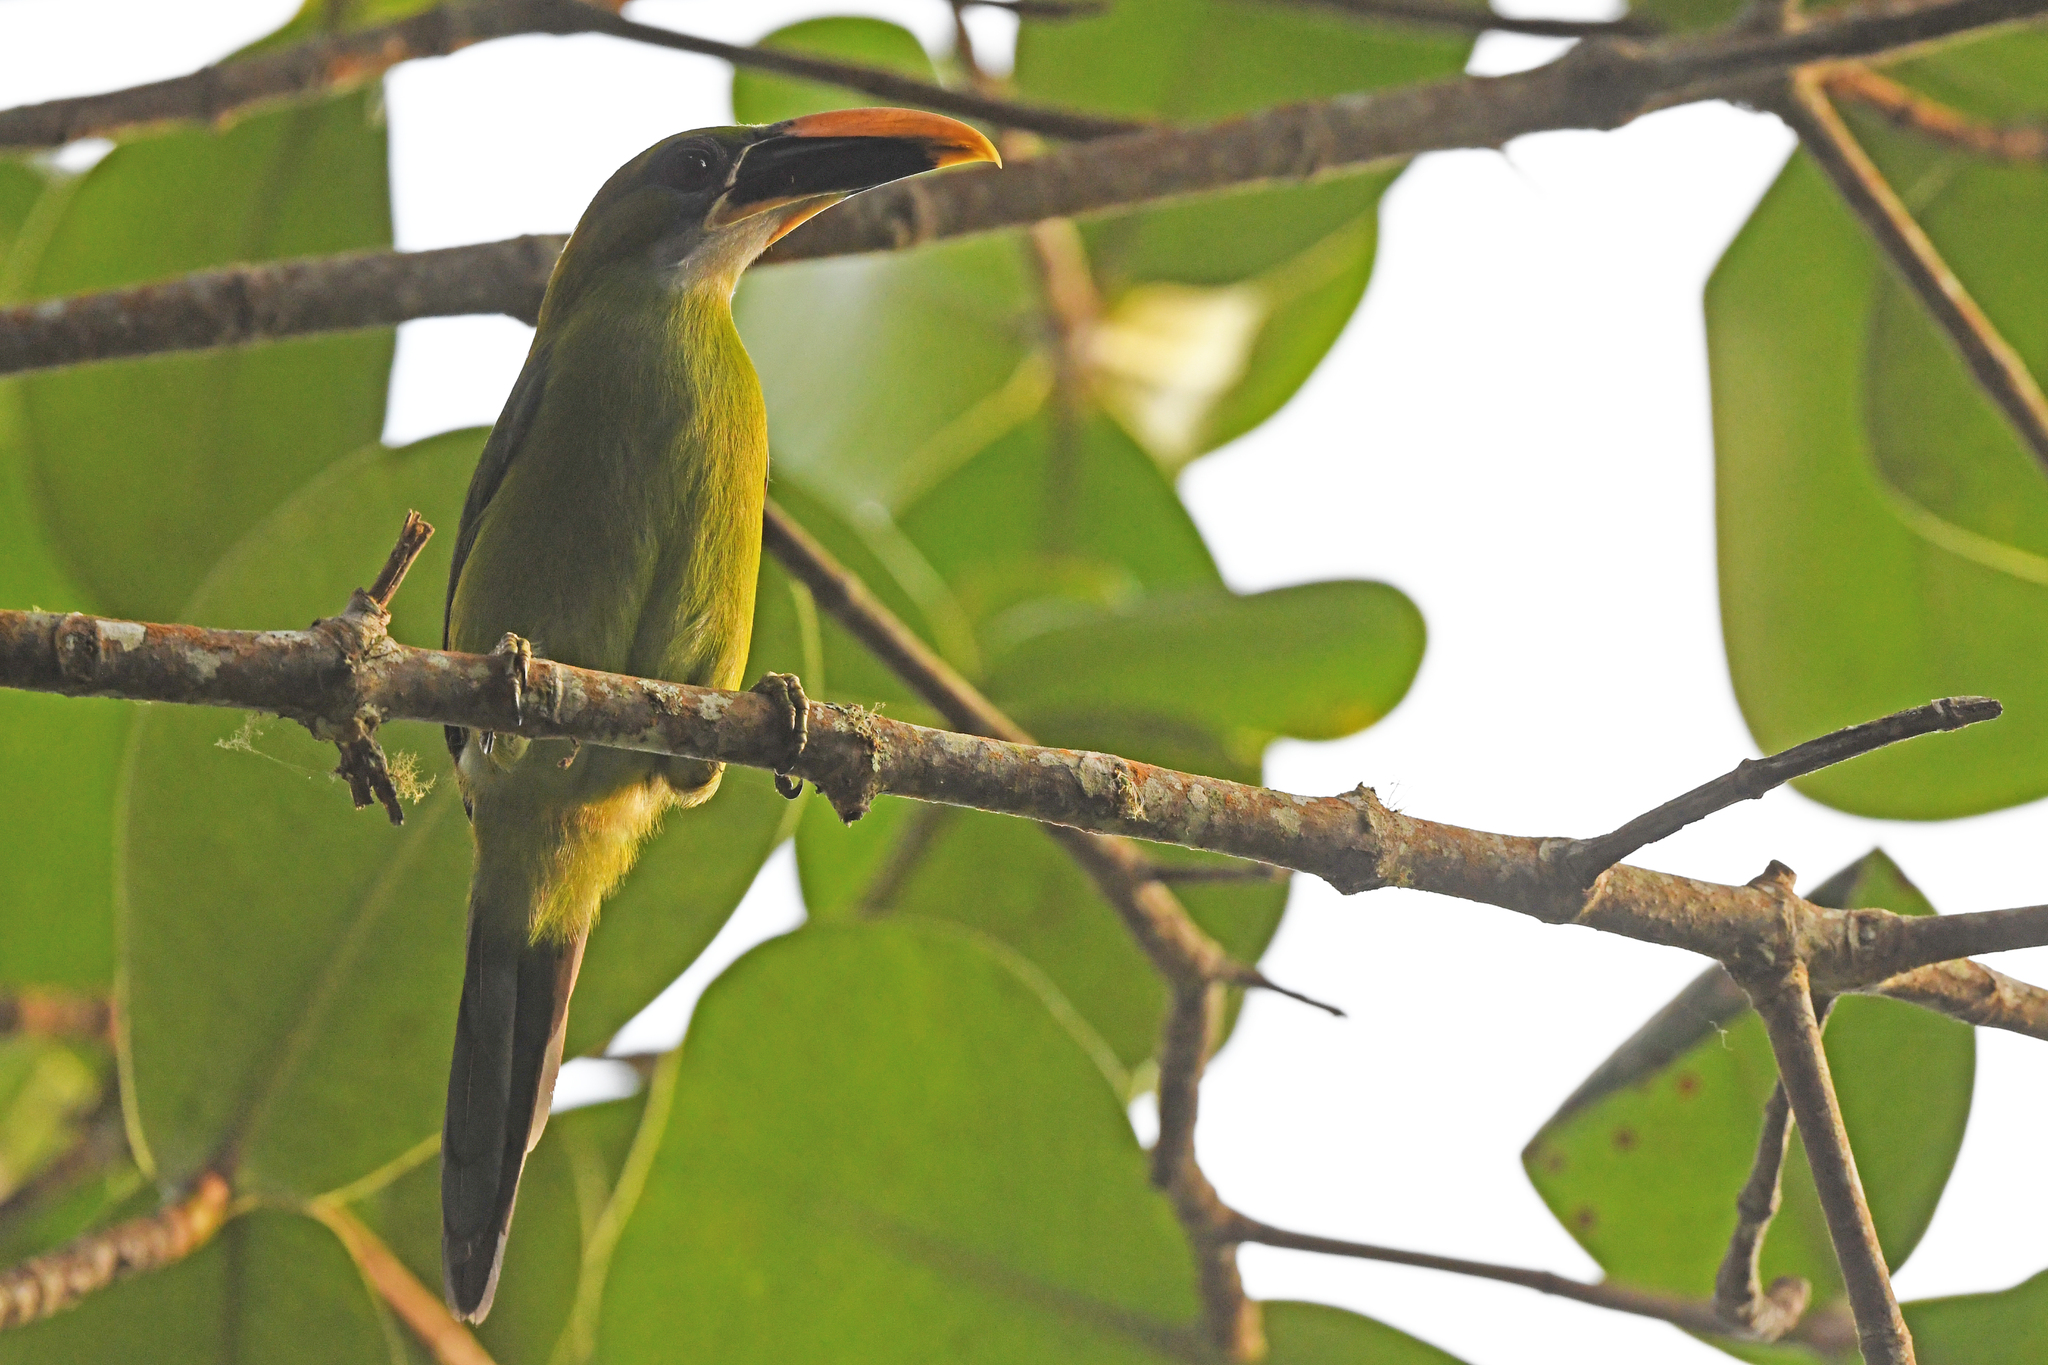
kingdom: Animalia
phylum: Chordata
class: Aves
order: Piciformes
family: Ramphastidae
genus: Aulacorhynchus
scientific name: Aulacorhynchus albivitta
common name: White-throated toucanet
